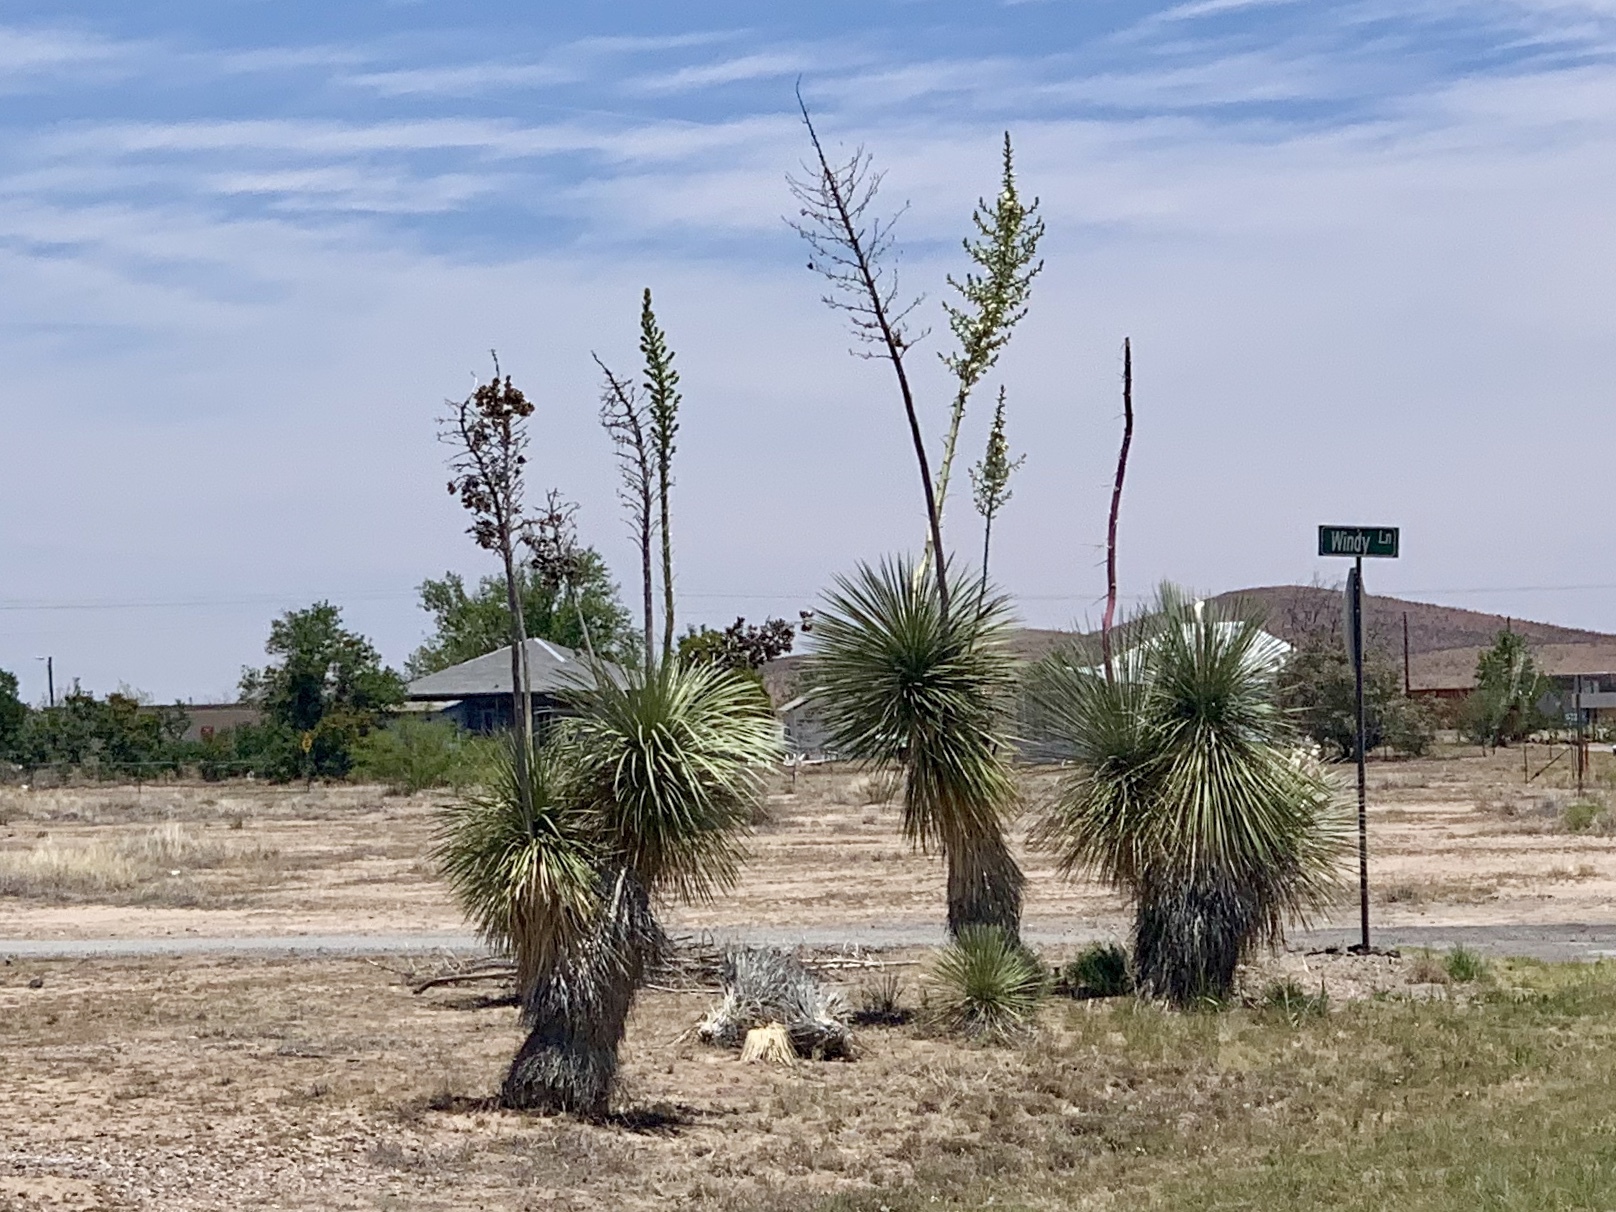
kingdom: Plantae
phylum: Tracheophyta
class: Liliopsida
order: Asparagales
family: Asparagaceae
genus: Yucca
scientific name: Yucca elata
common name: Palmella
